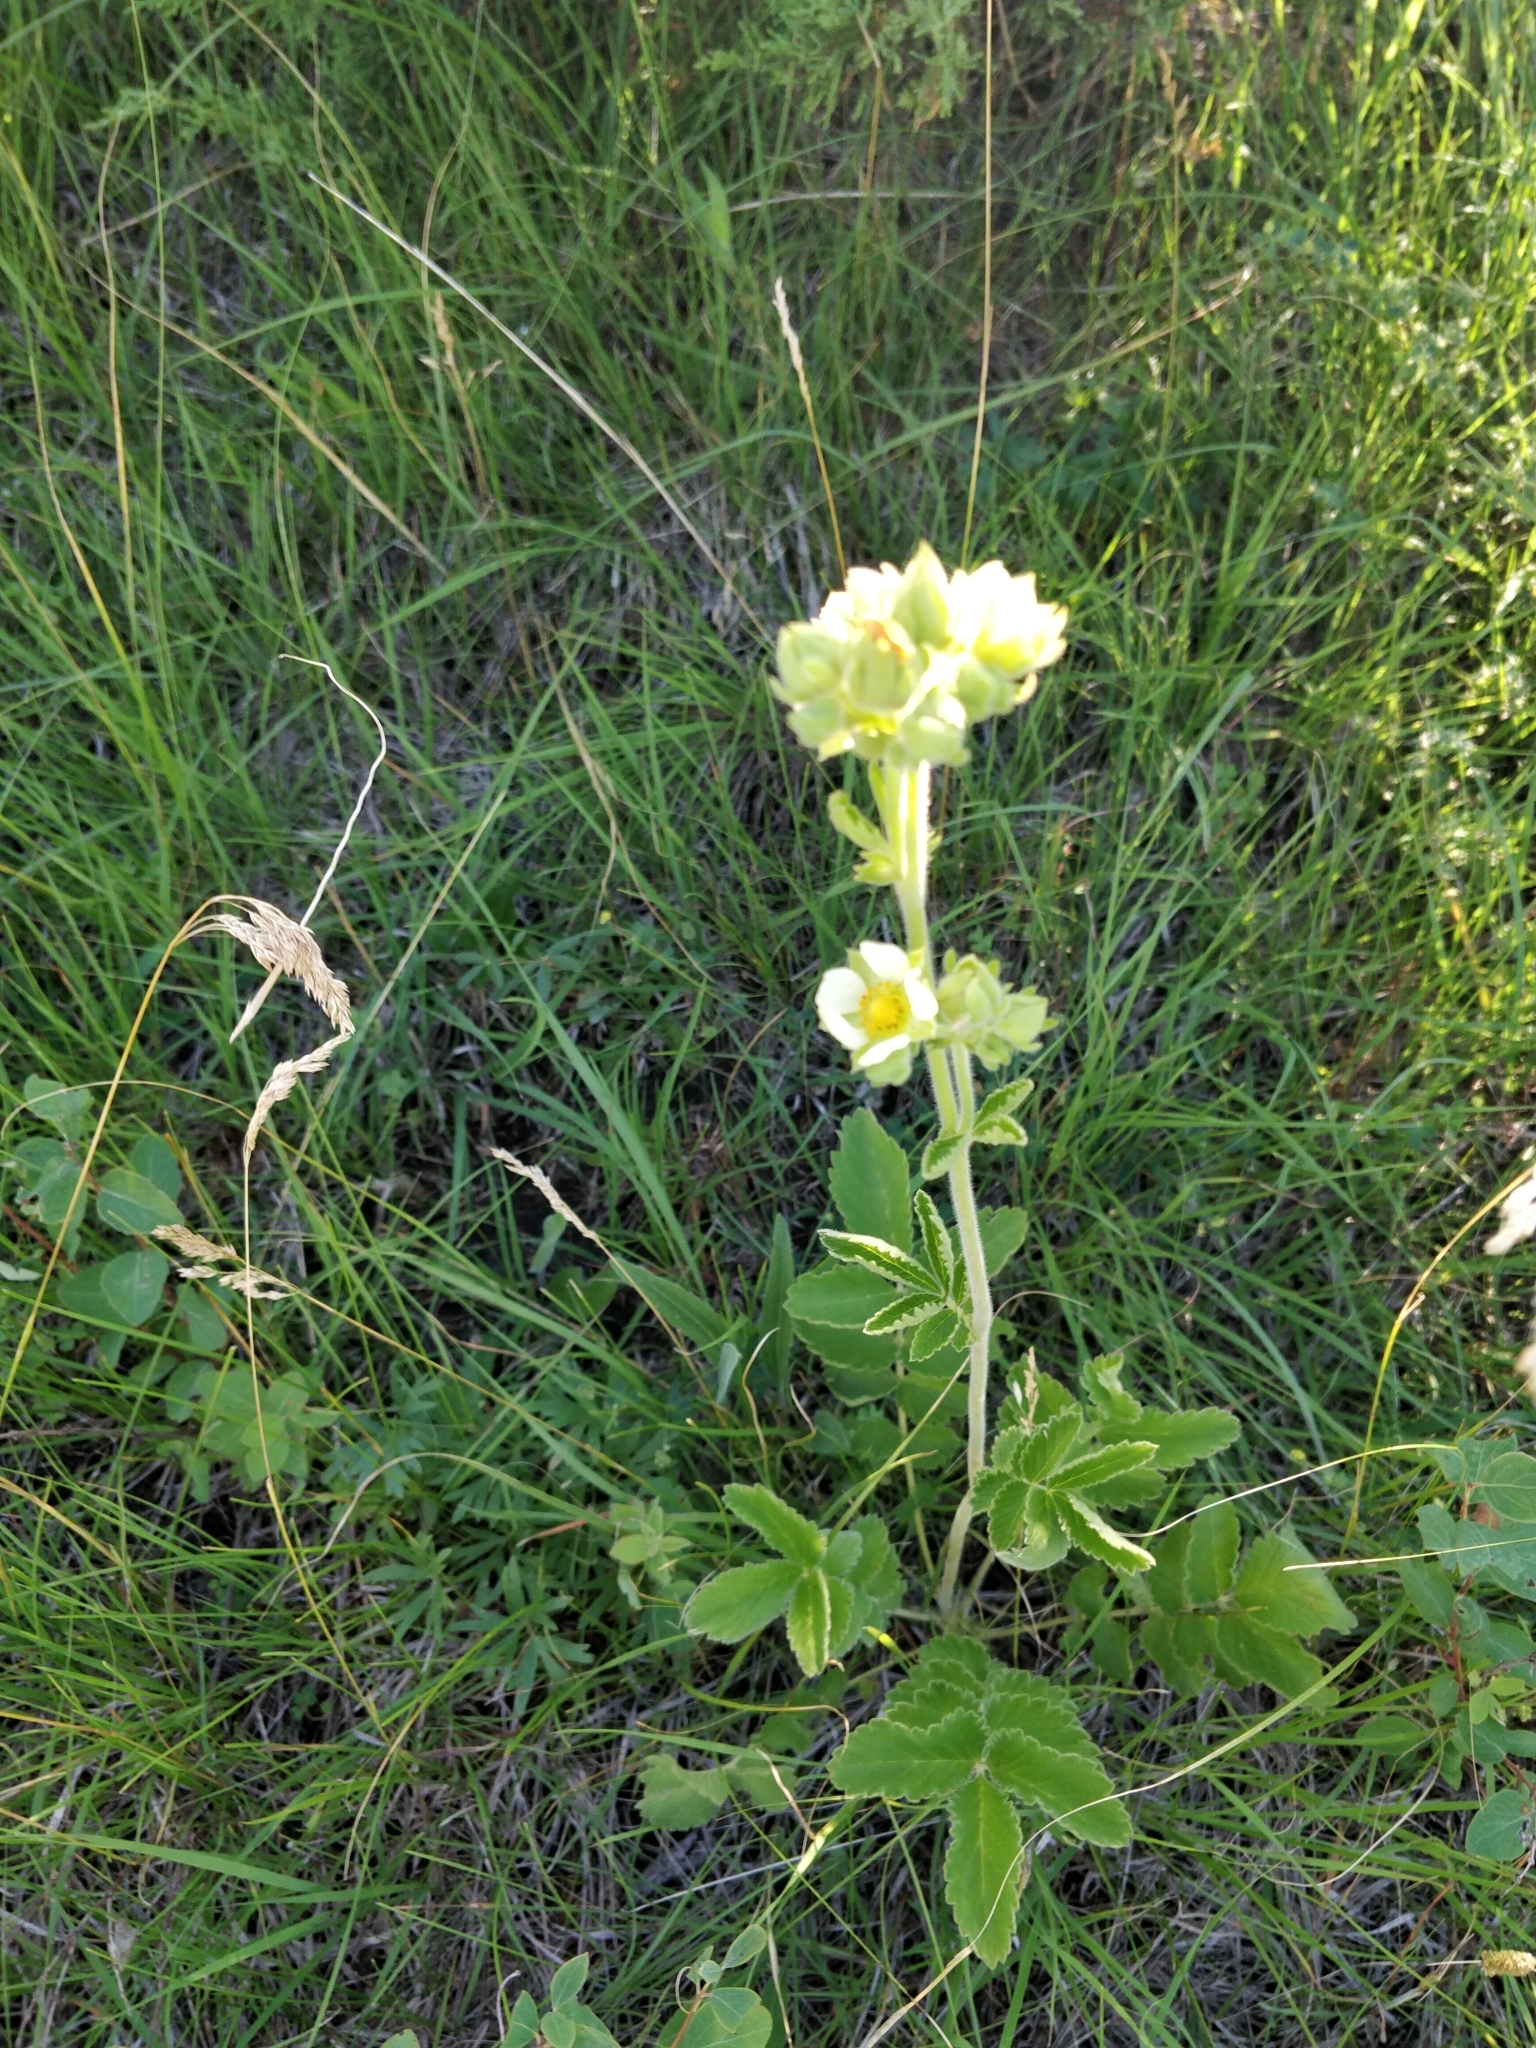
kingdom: Plantae
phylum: Tracheophyta
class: Magnoliopsida
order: Rosales
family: Rosaceae
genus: Drymocallis
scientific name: Drymocallis arguta
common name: Tall cinquefoil
